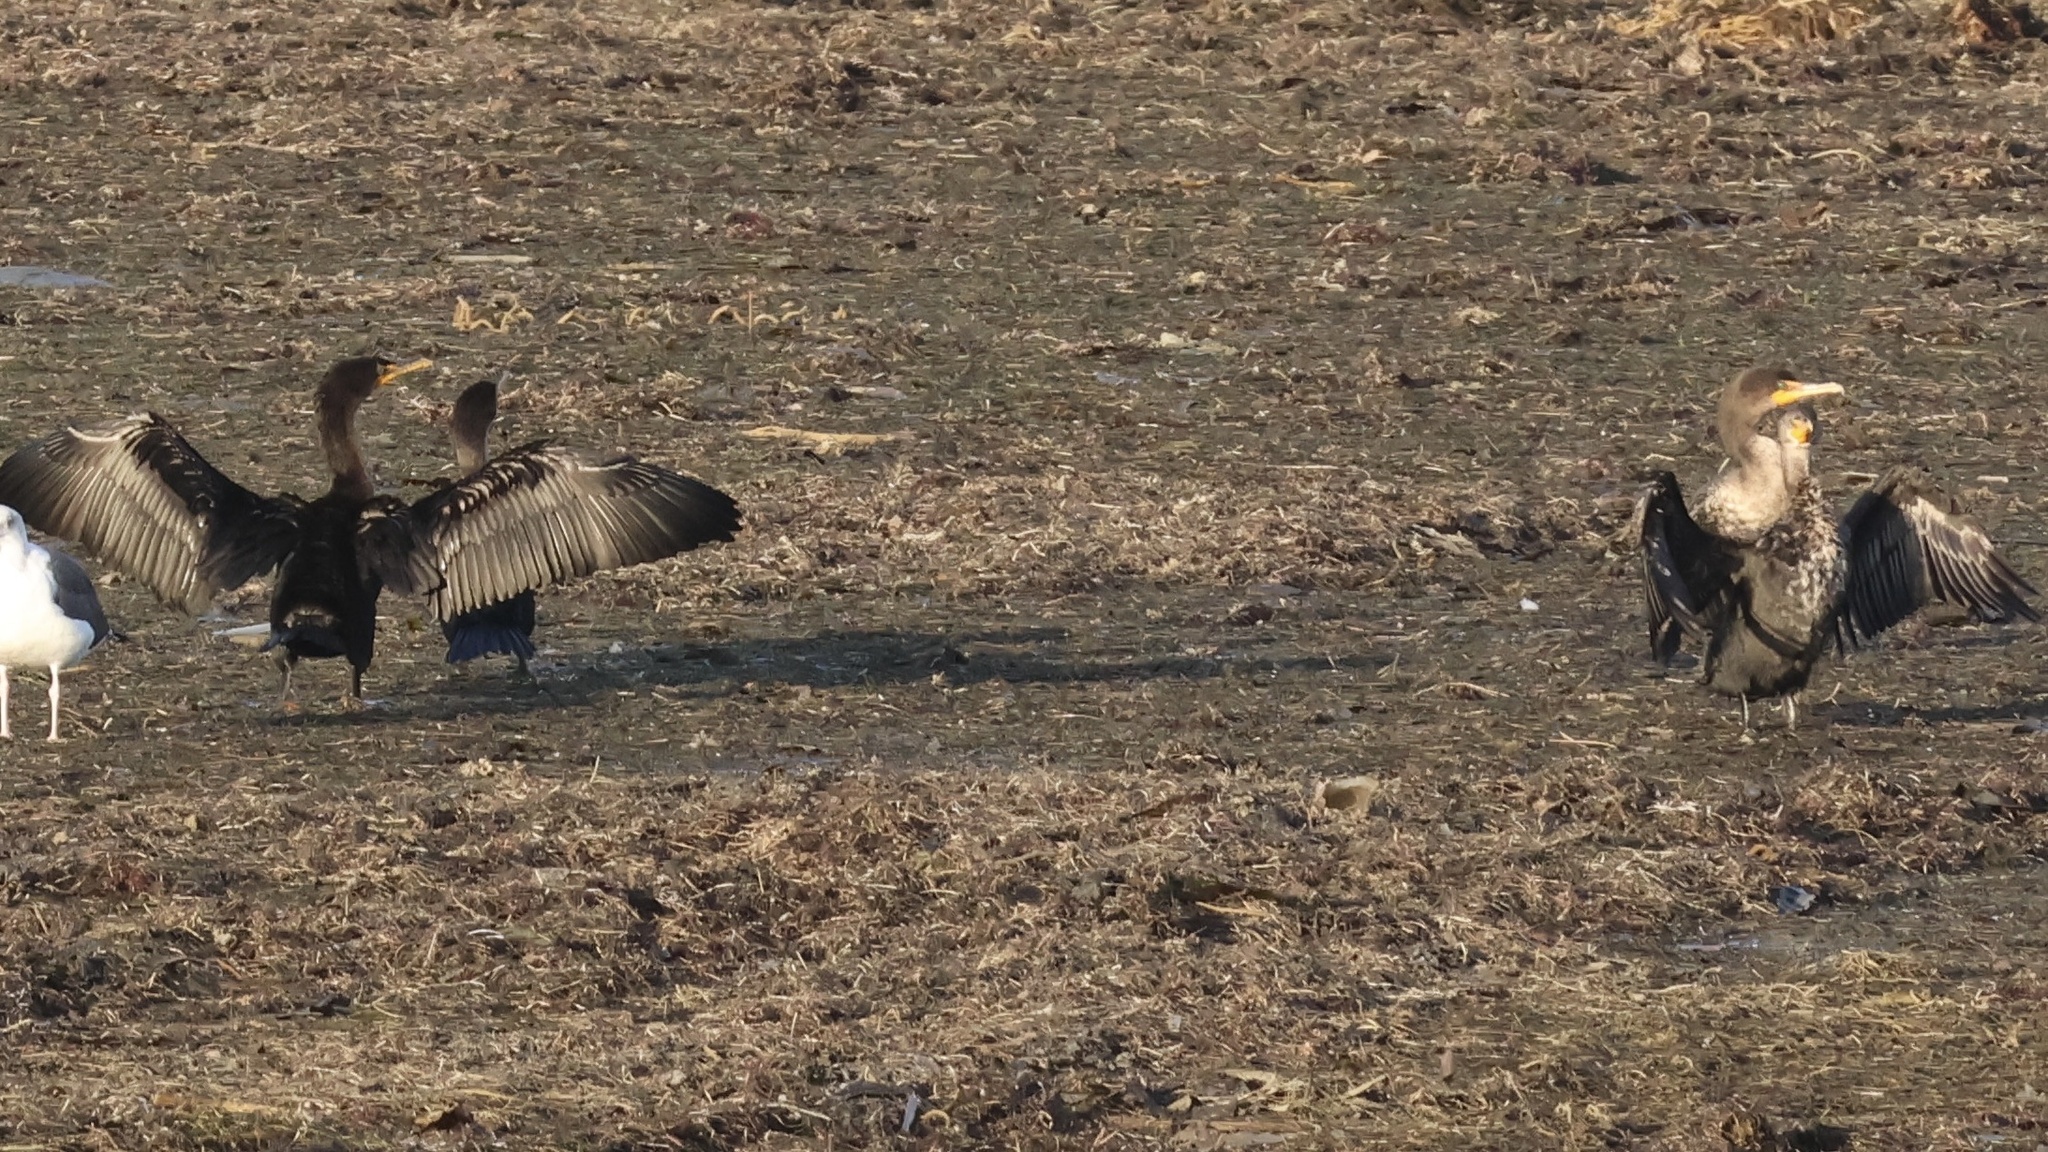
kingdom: Animalia
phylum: Chordata
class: Aves
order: Suliformes
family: Phalacrocoracidae
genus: Phalacrocorax
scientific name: Phalacrocorax auritus
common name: Double-crested cormorant
